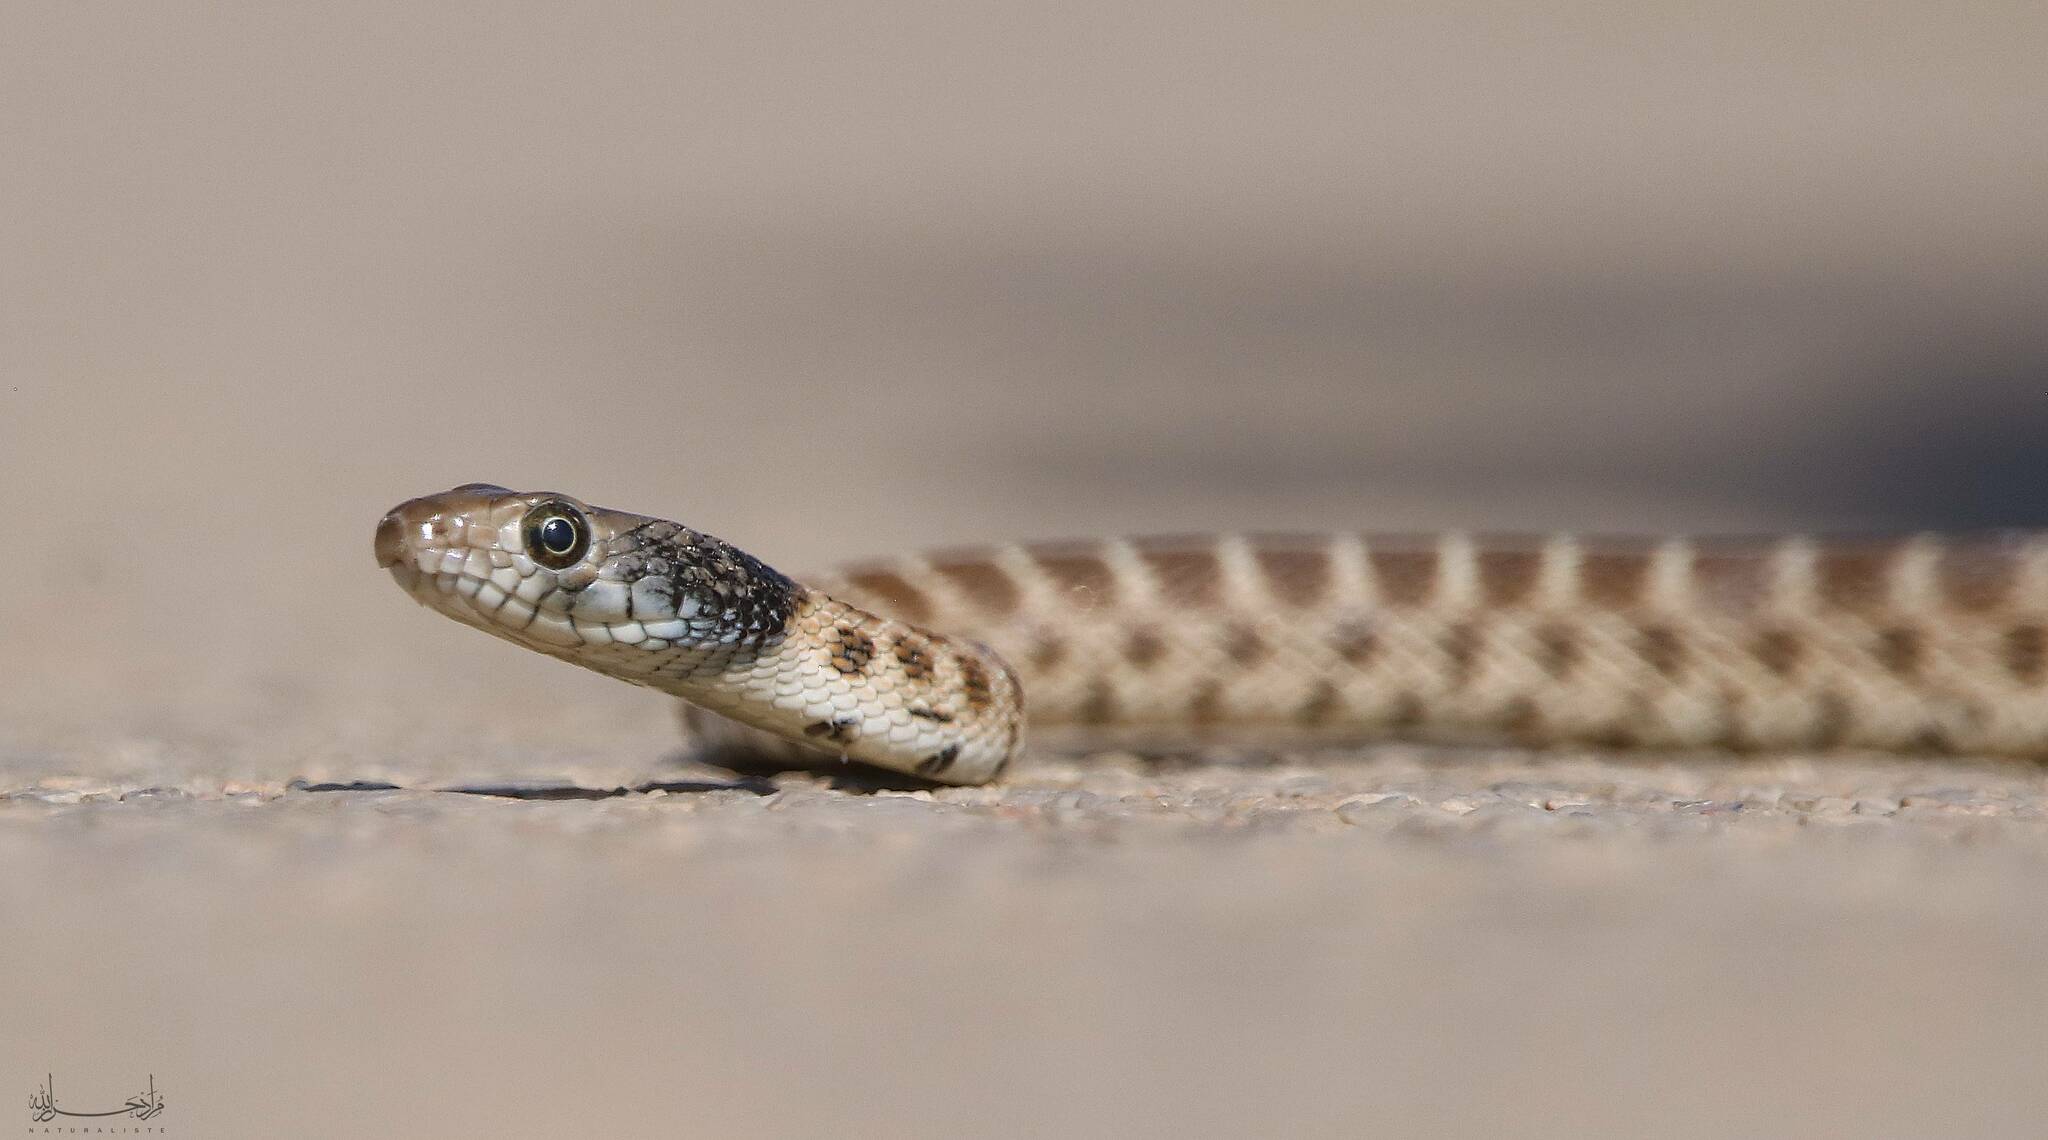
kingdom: Animalia
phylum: Chordata
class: Squamata
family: Colubridae
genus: Hemorrhois
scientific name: Hemorrhois algirus
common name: Algerian whip snake
